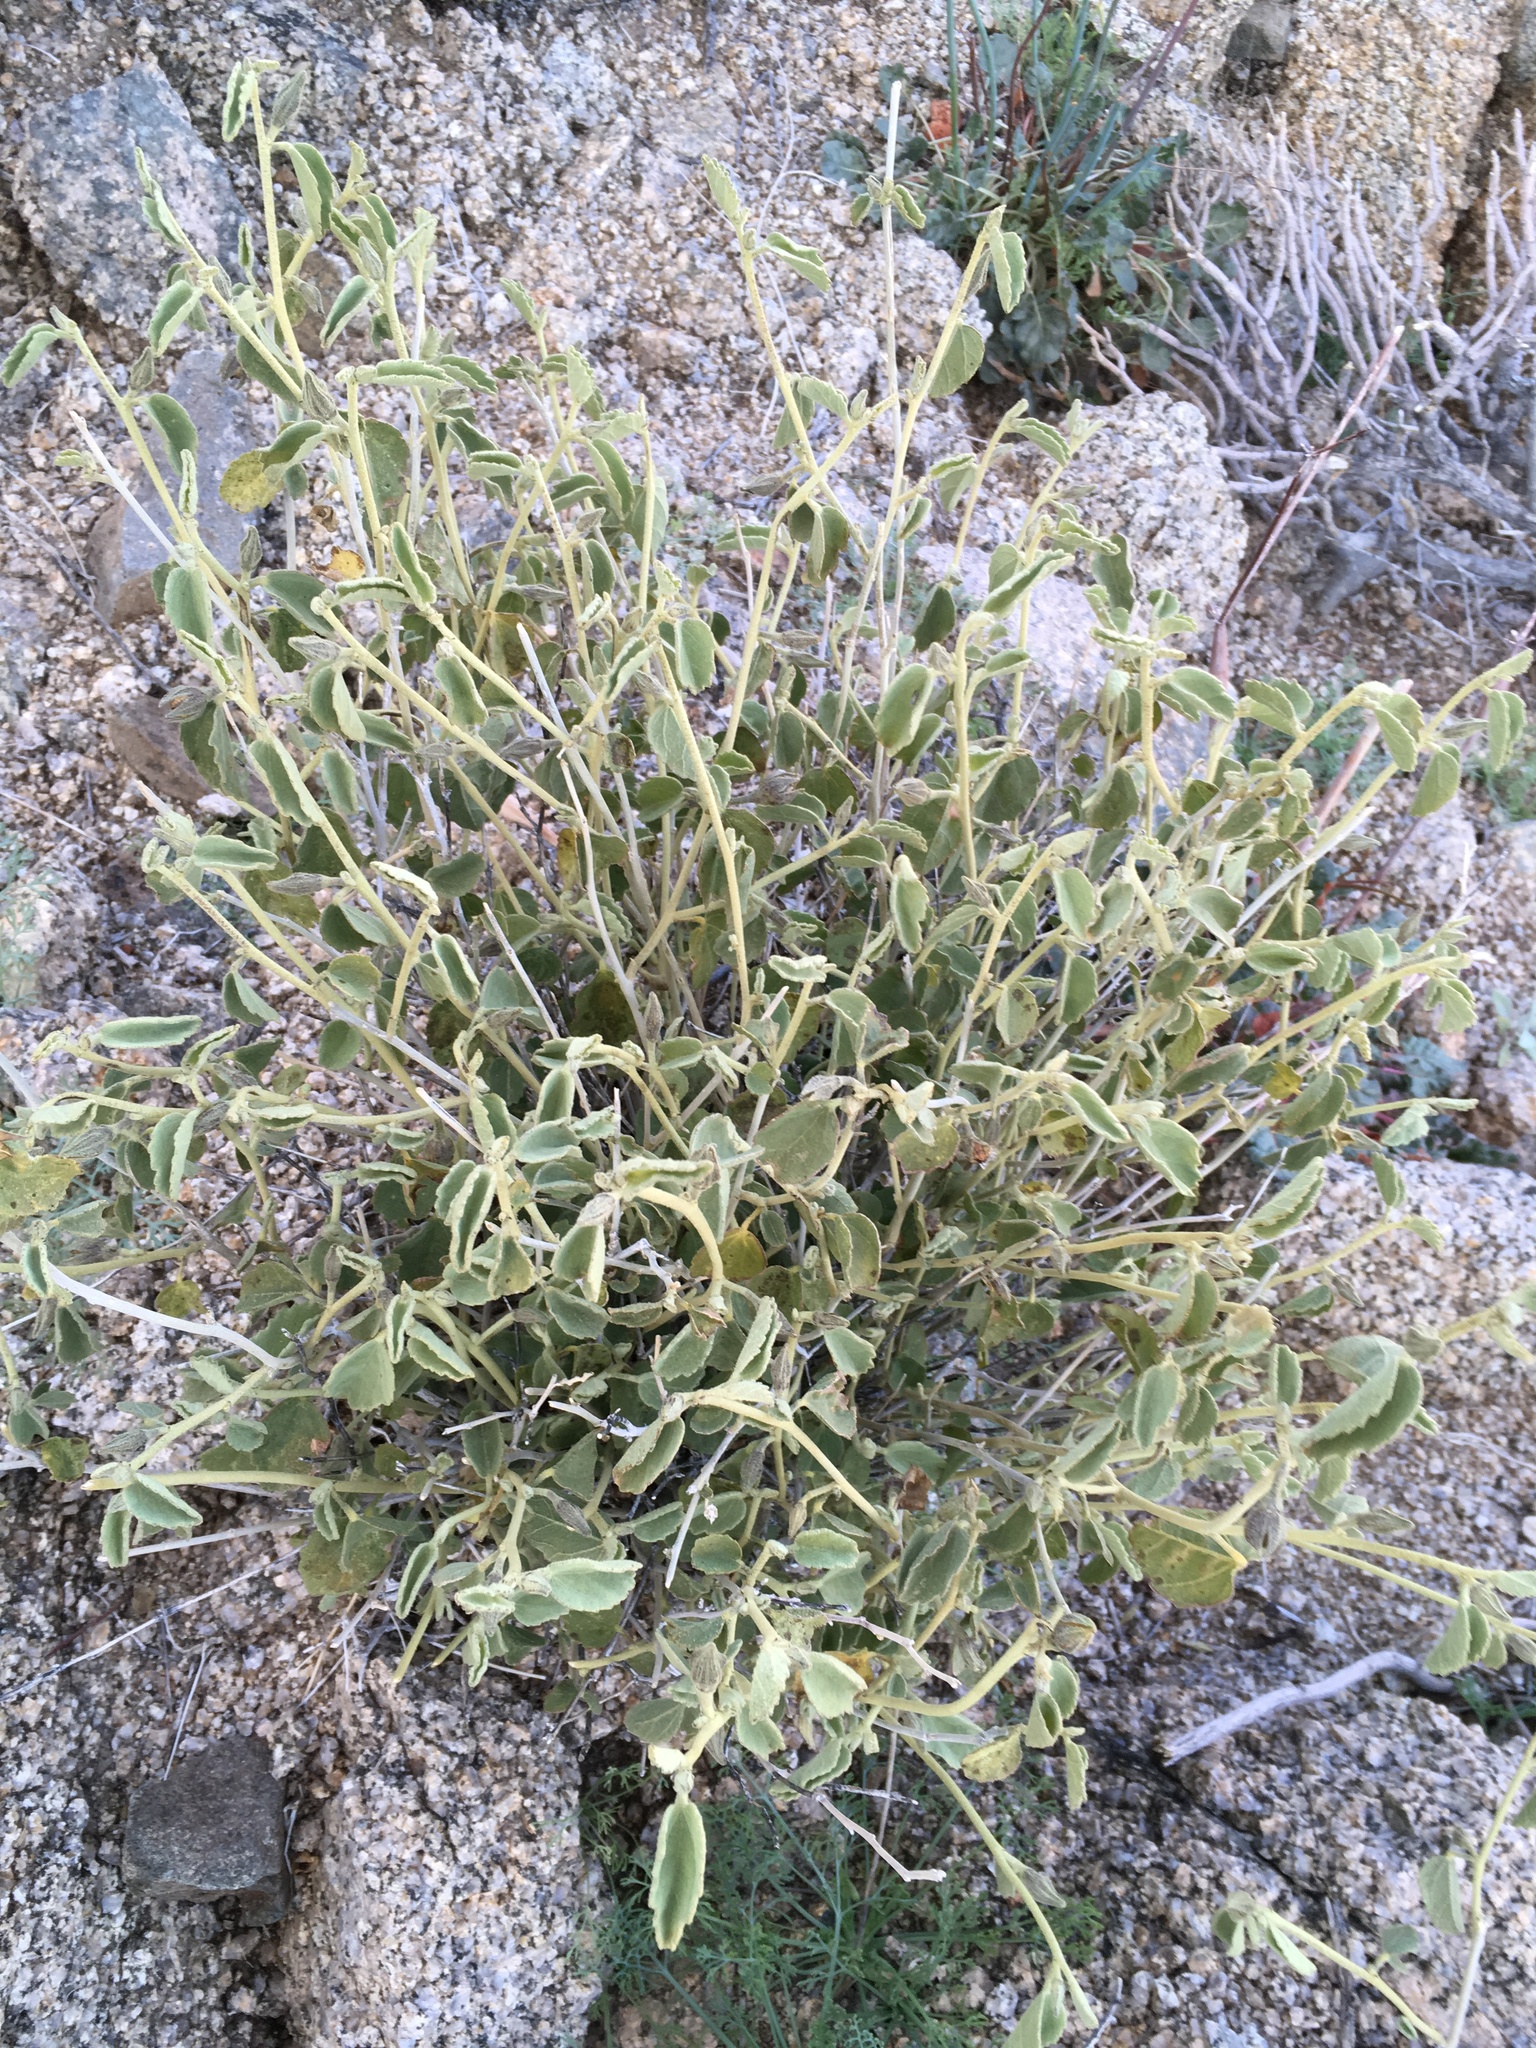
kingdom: Plantae
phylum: Tracheophyta
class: Magnoliopsida
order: Malvales
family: Malvaceae
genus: Hibiscus
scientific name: Hibiscus denudatus
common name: Paleface
